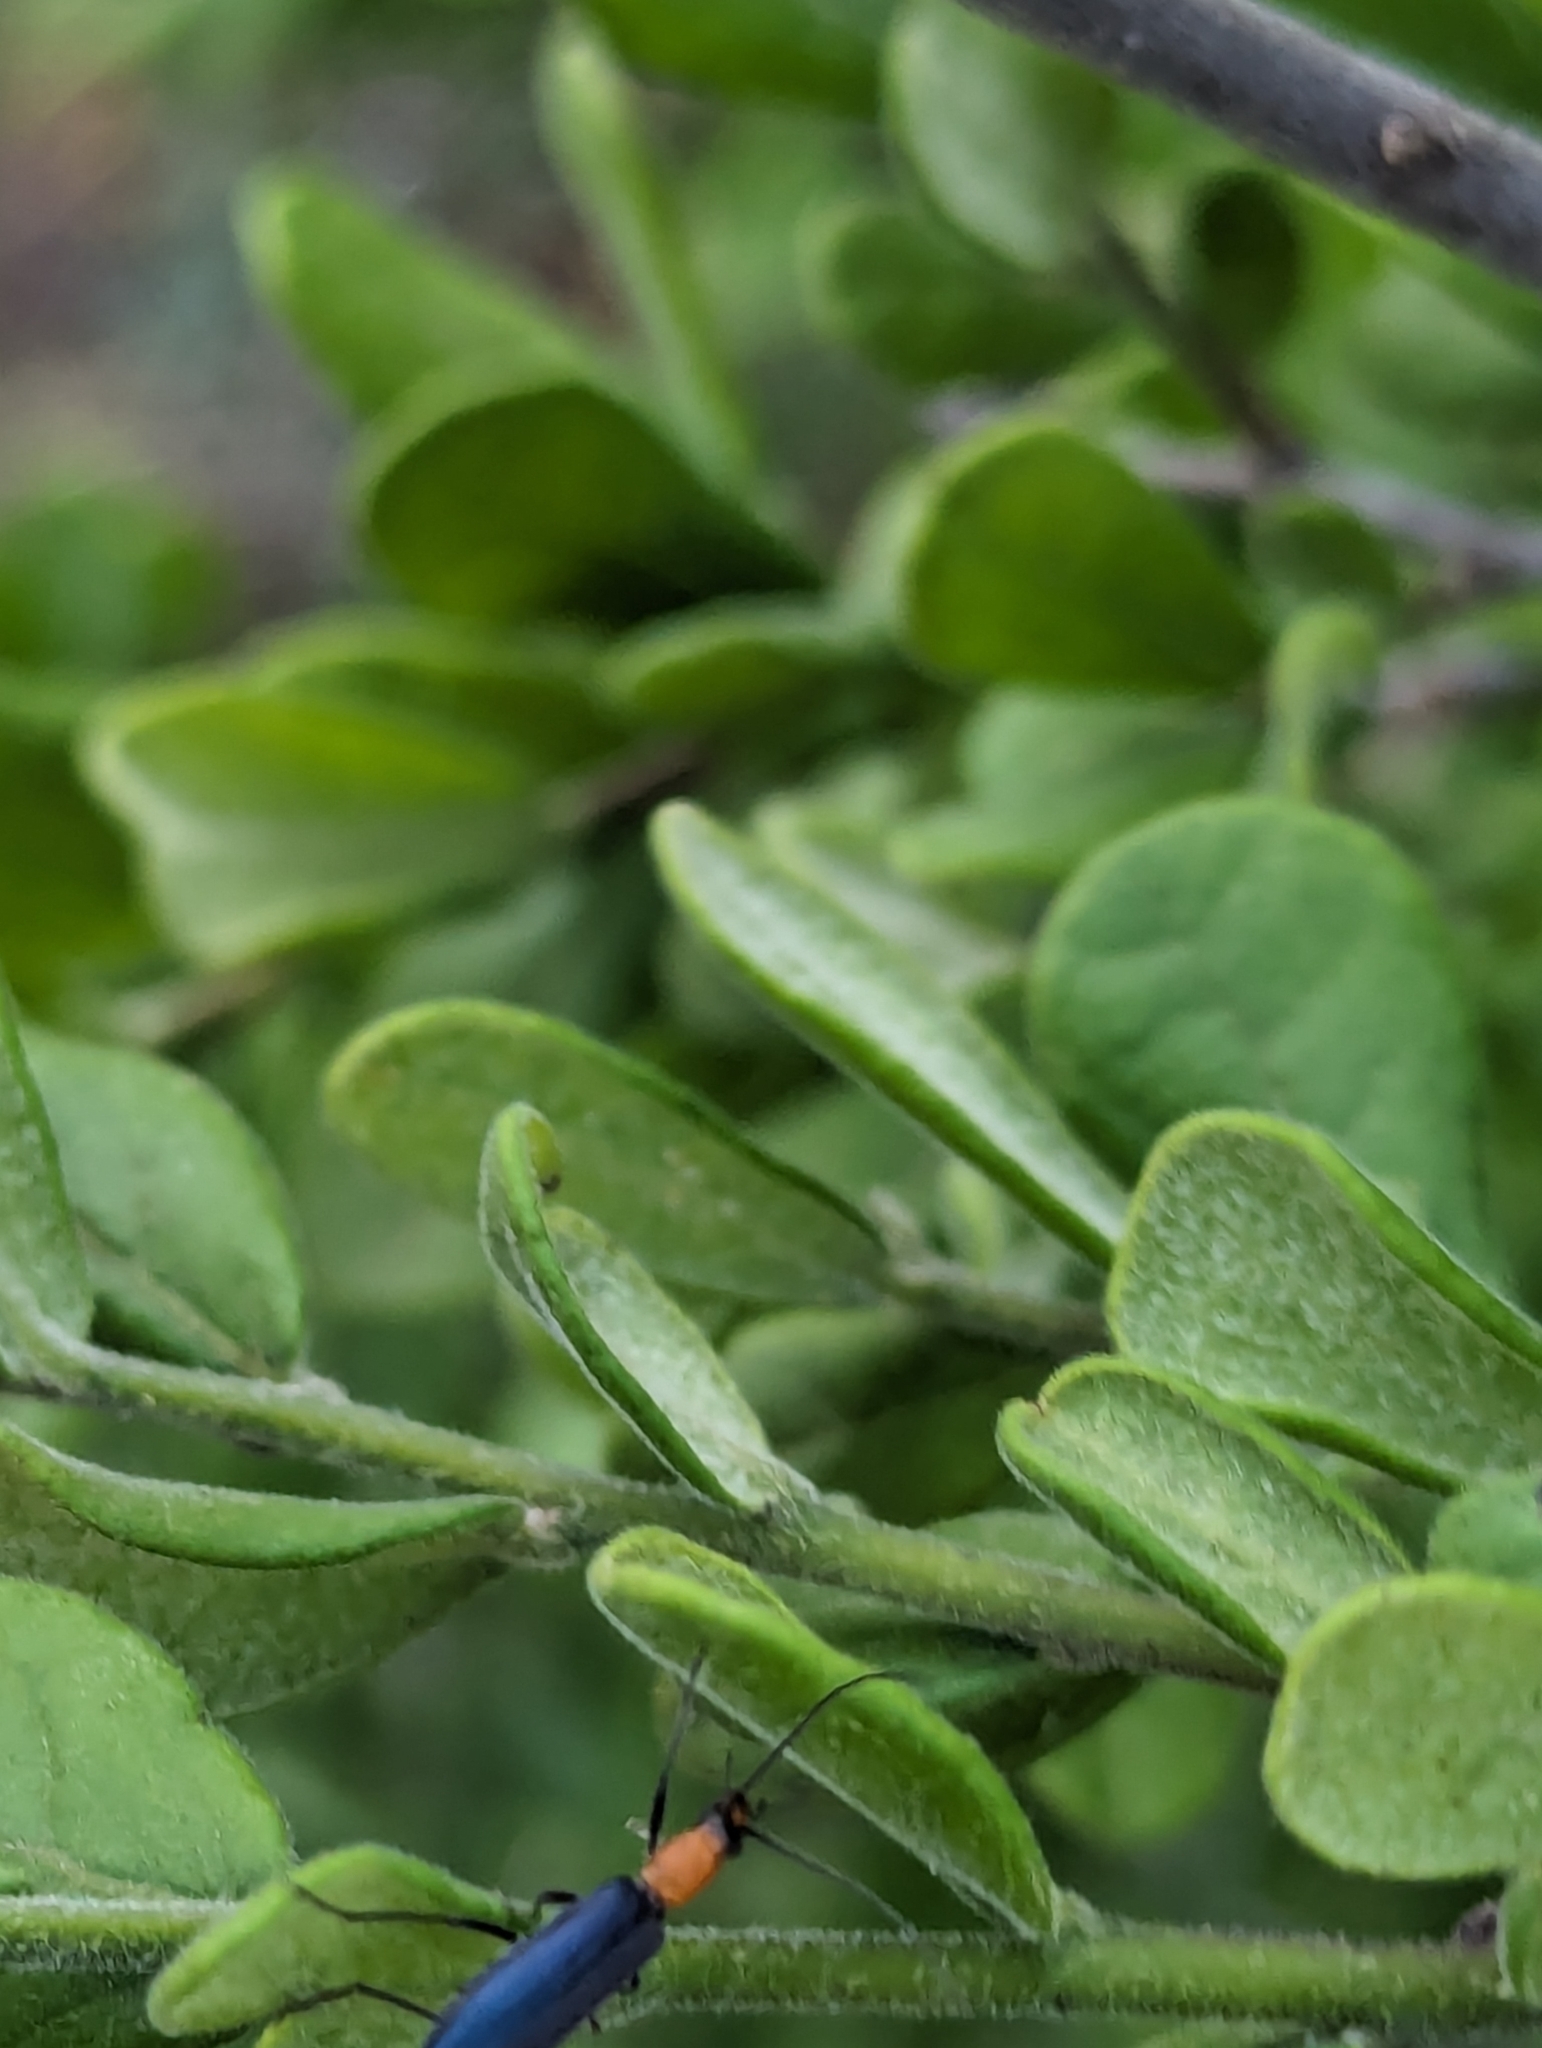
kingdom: Animalia
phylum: Arthropoda
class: Insecta
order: Coleoptera
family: Oedemeridae
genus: Heliocis
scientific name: Heliocis repanda
